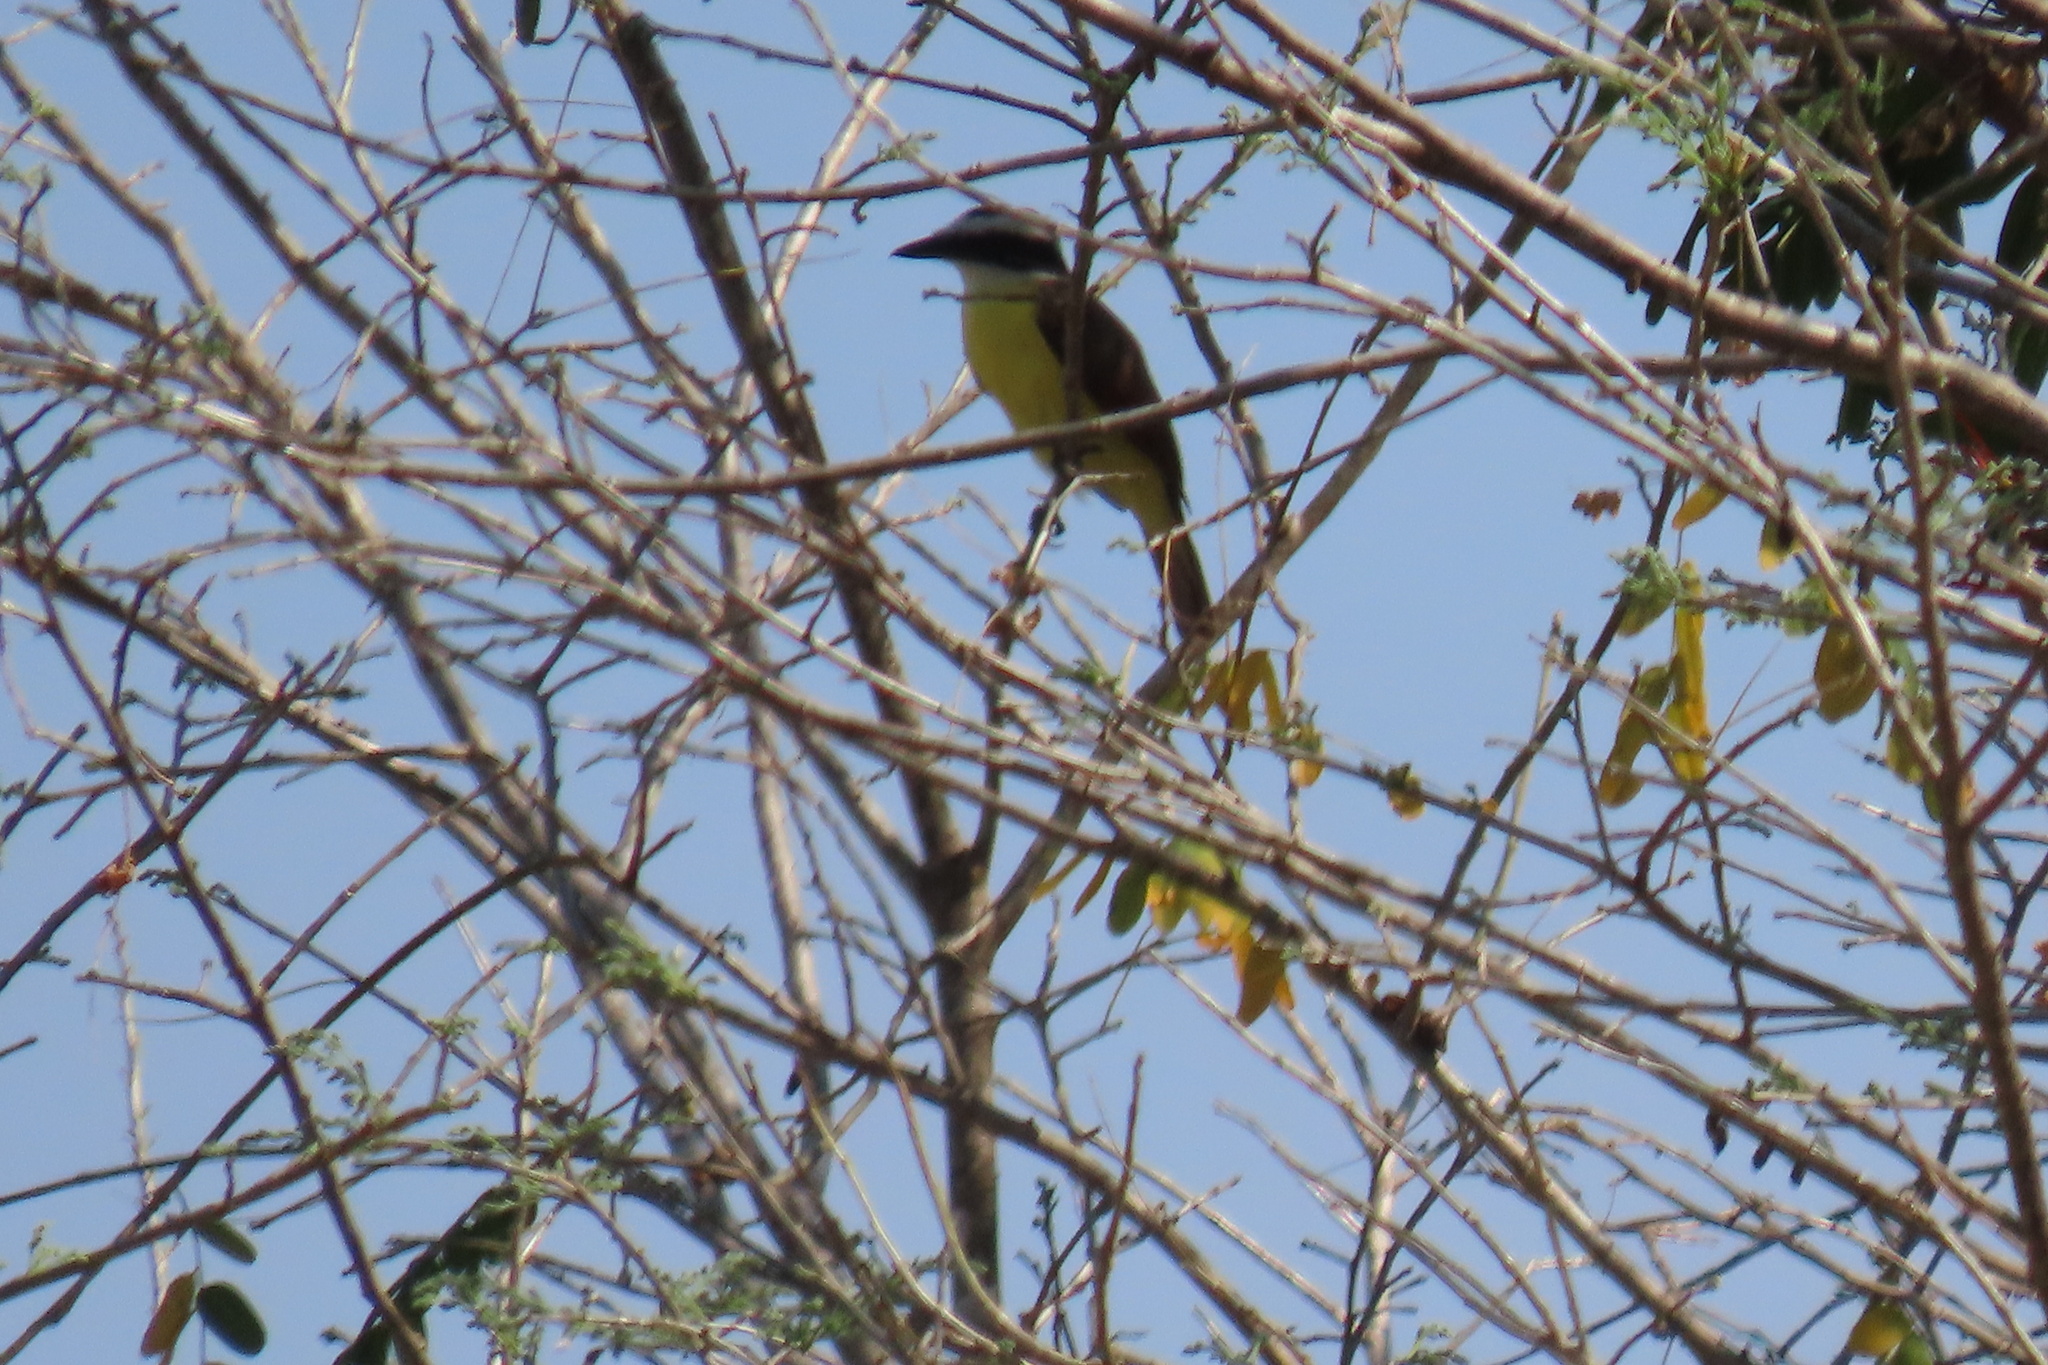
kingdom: Animalia
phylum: Chordata
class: Aves
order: Passeriformes
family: Tyrannidae
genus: Pitangus
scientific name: Pitangus sulphuratus
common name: Great kiskadee
